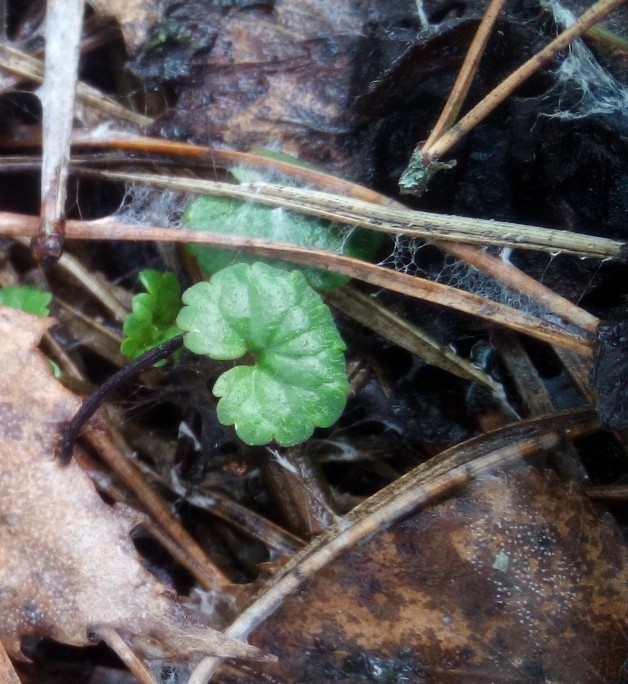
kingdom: Plantae
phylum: Tracheophyta
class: Magnoliopsida
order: Lamiales
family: Lamiaceae
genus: Glechoma
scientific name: Glechoma hederacea
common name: Ground ivy
